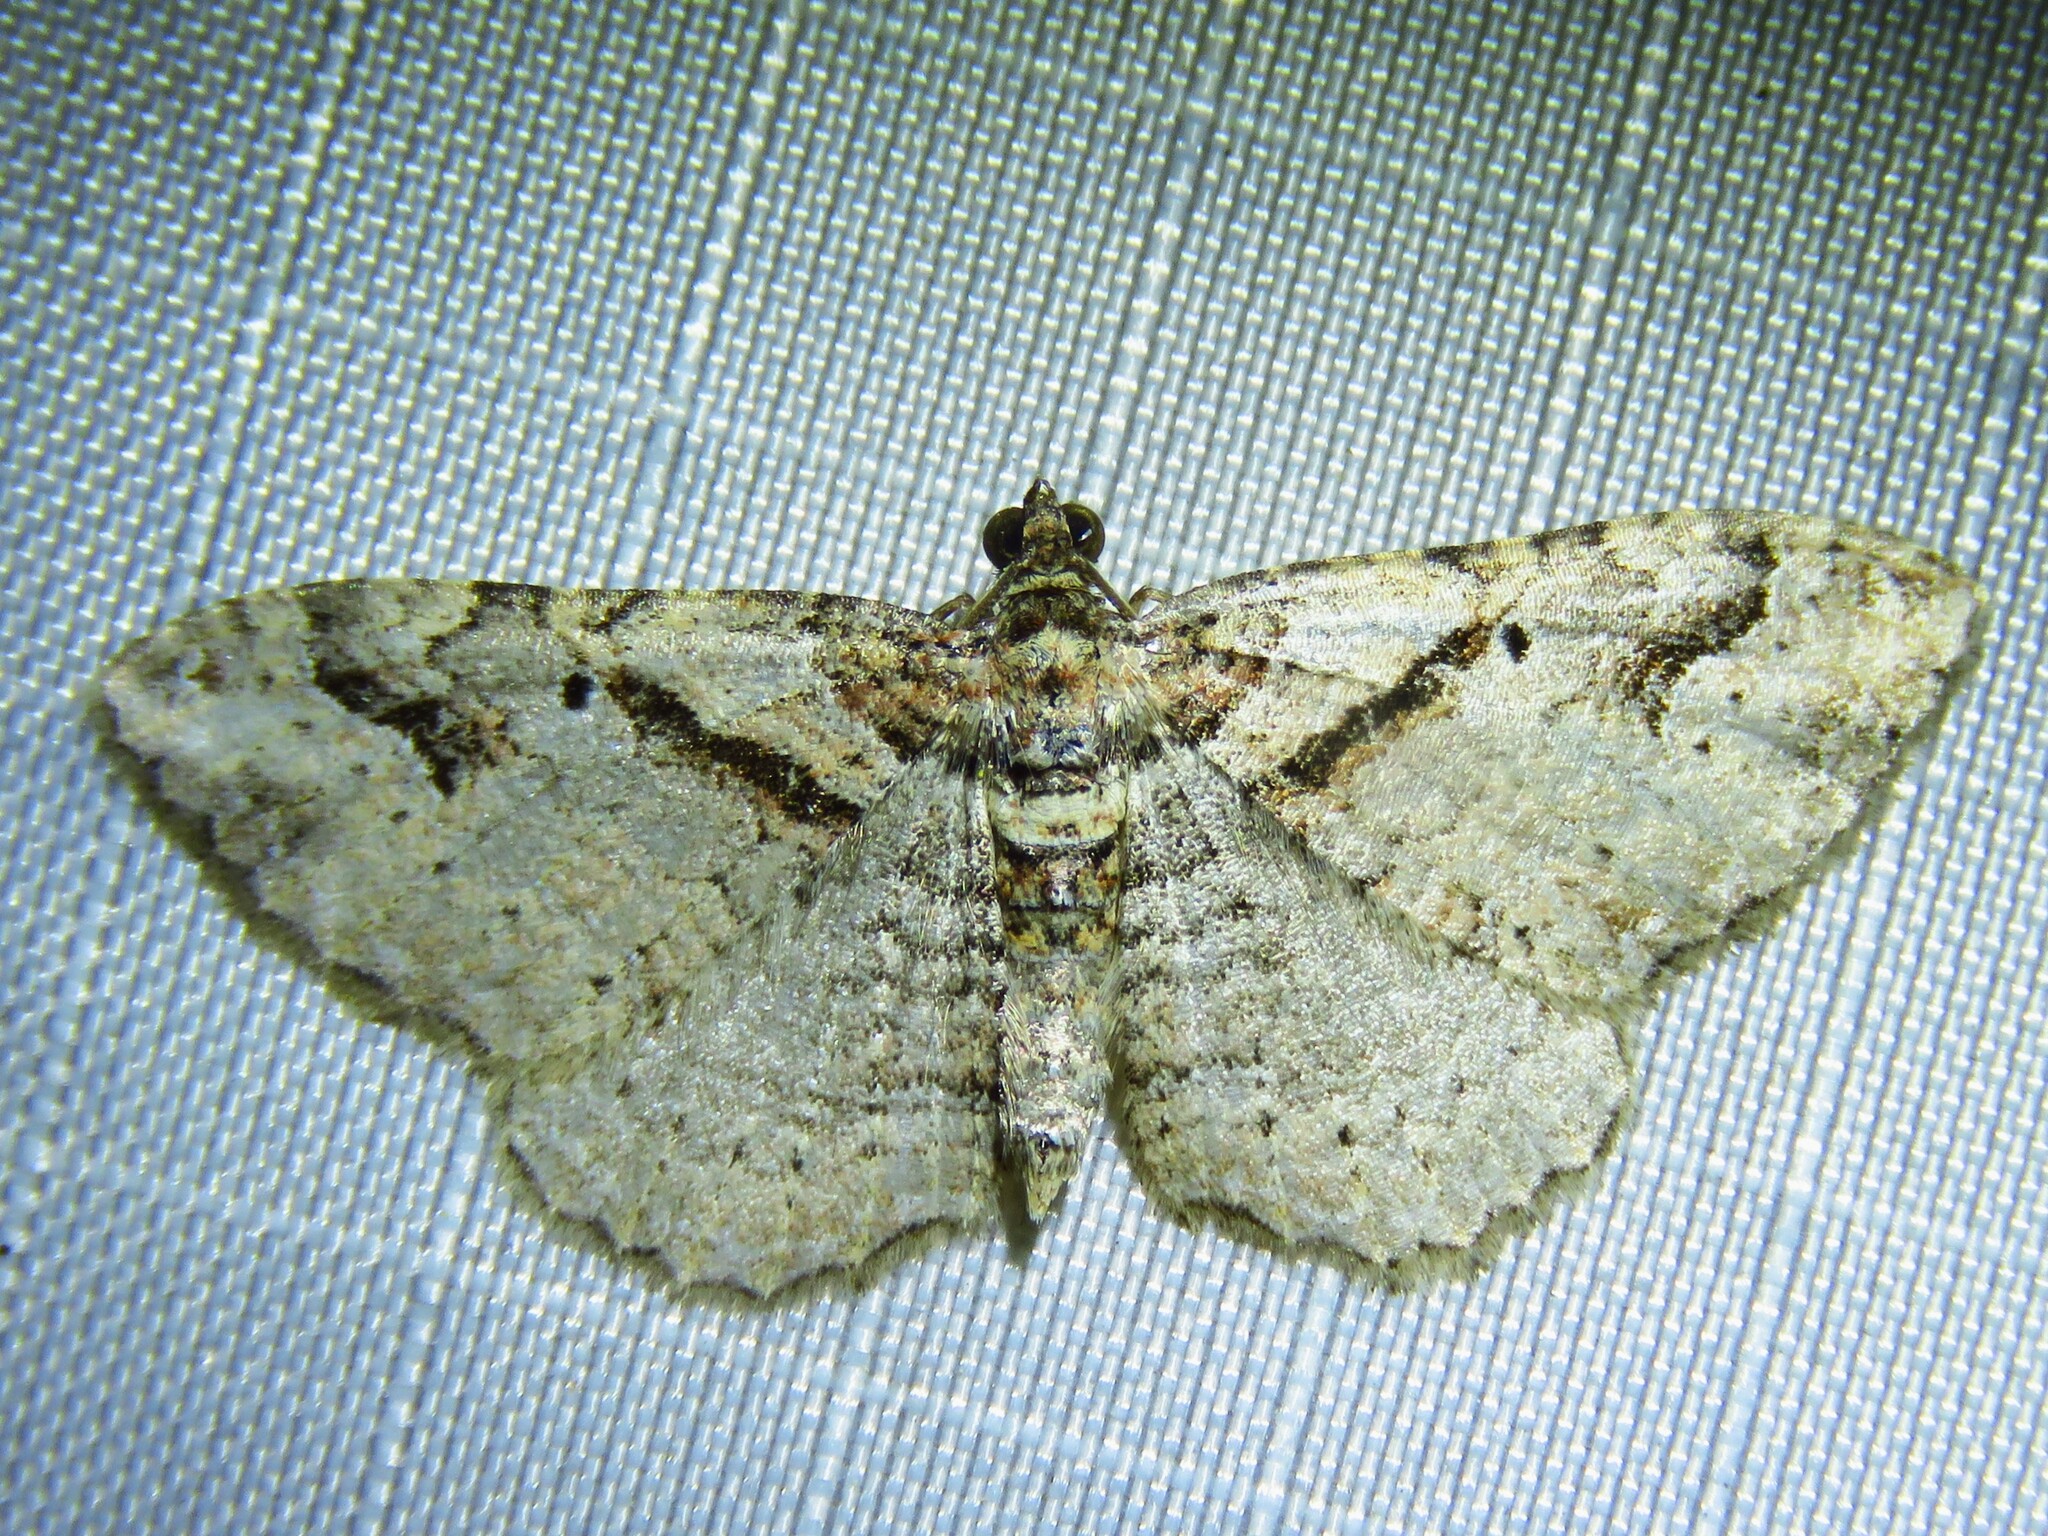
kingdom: Animalia
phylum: Arthropoda
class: Insecta
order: Lepidoptera
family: Geometridae
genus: Costaconvexa
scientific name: Costaconvexa centrostrigaria
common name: Bent-line carpet
